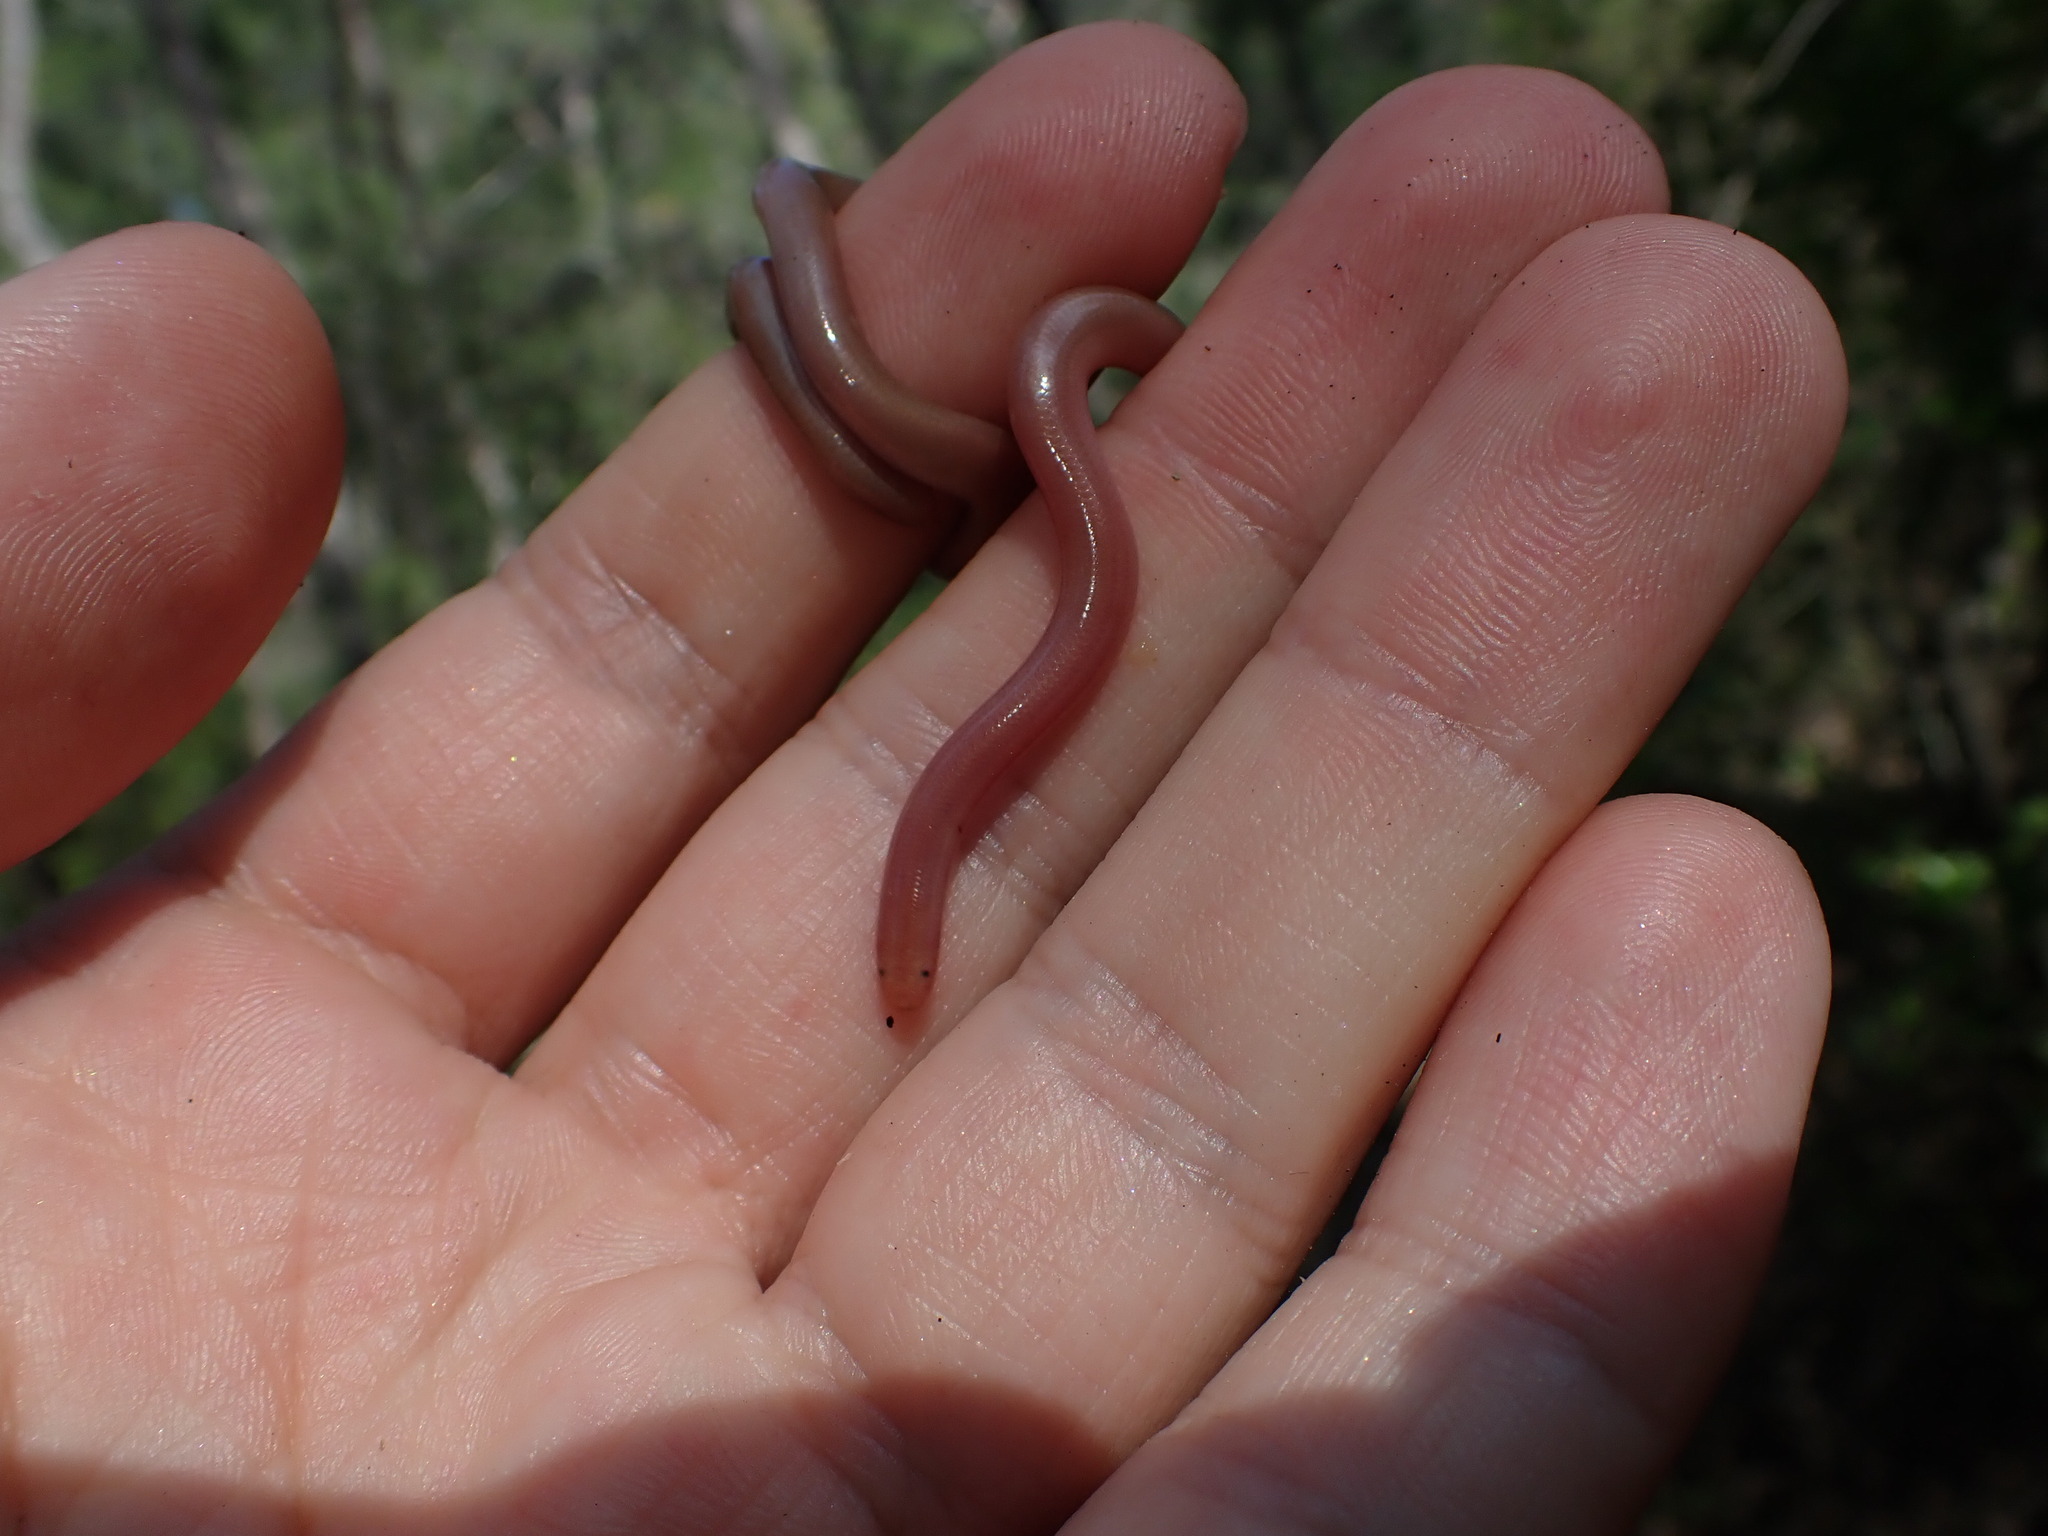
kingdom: Animalia
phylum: Chordata
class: Squamata
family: Typhlopidae
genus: Xerotyphlops
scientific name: Xerotyphlops vermicularis
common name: Eurasian blind snake
